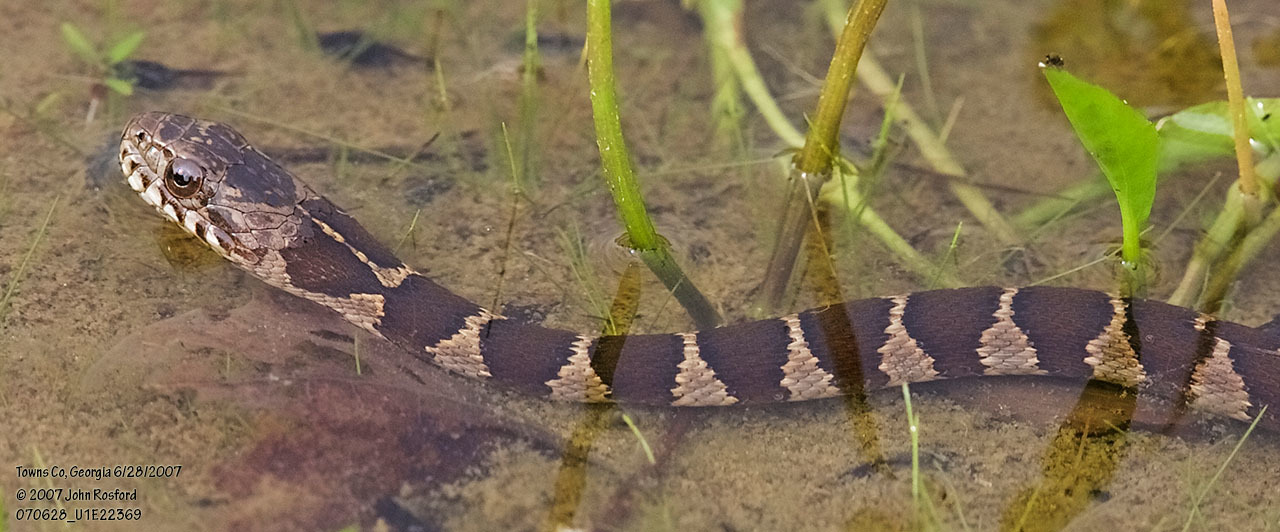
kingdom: Animalia
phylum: Chordata
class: Squamata
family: Colubridae
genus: Nerodia
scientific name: Nerodia sipedon
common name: Northern water snake
